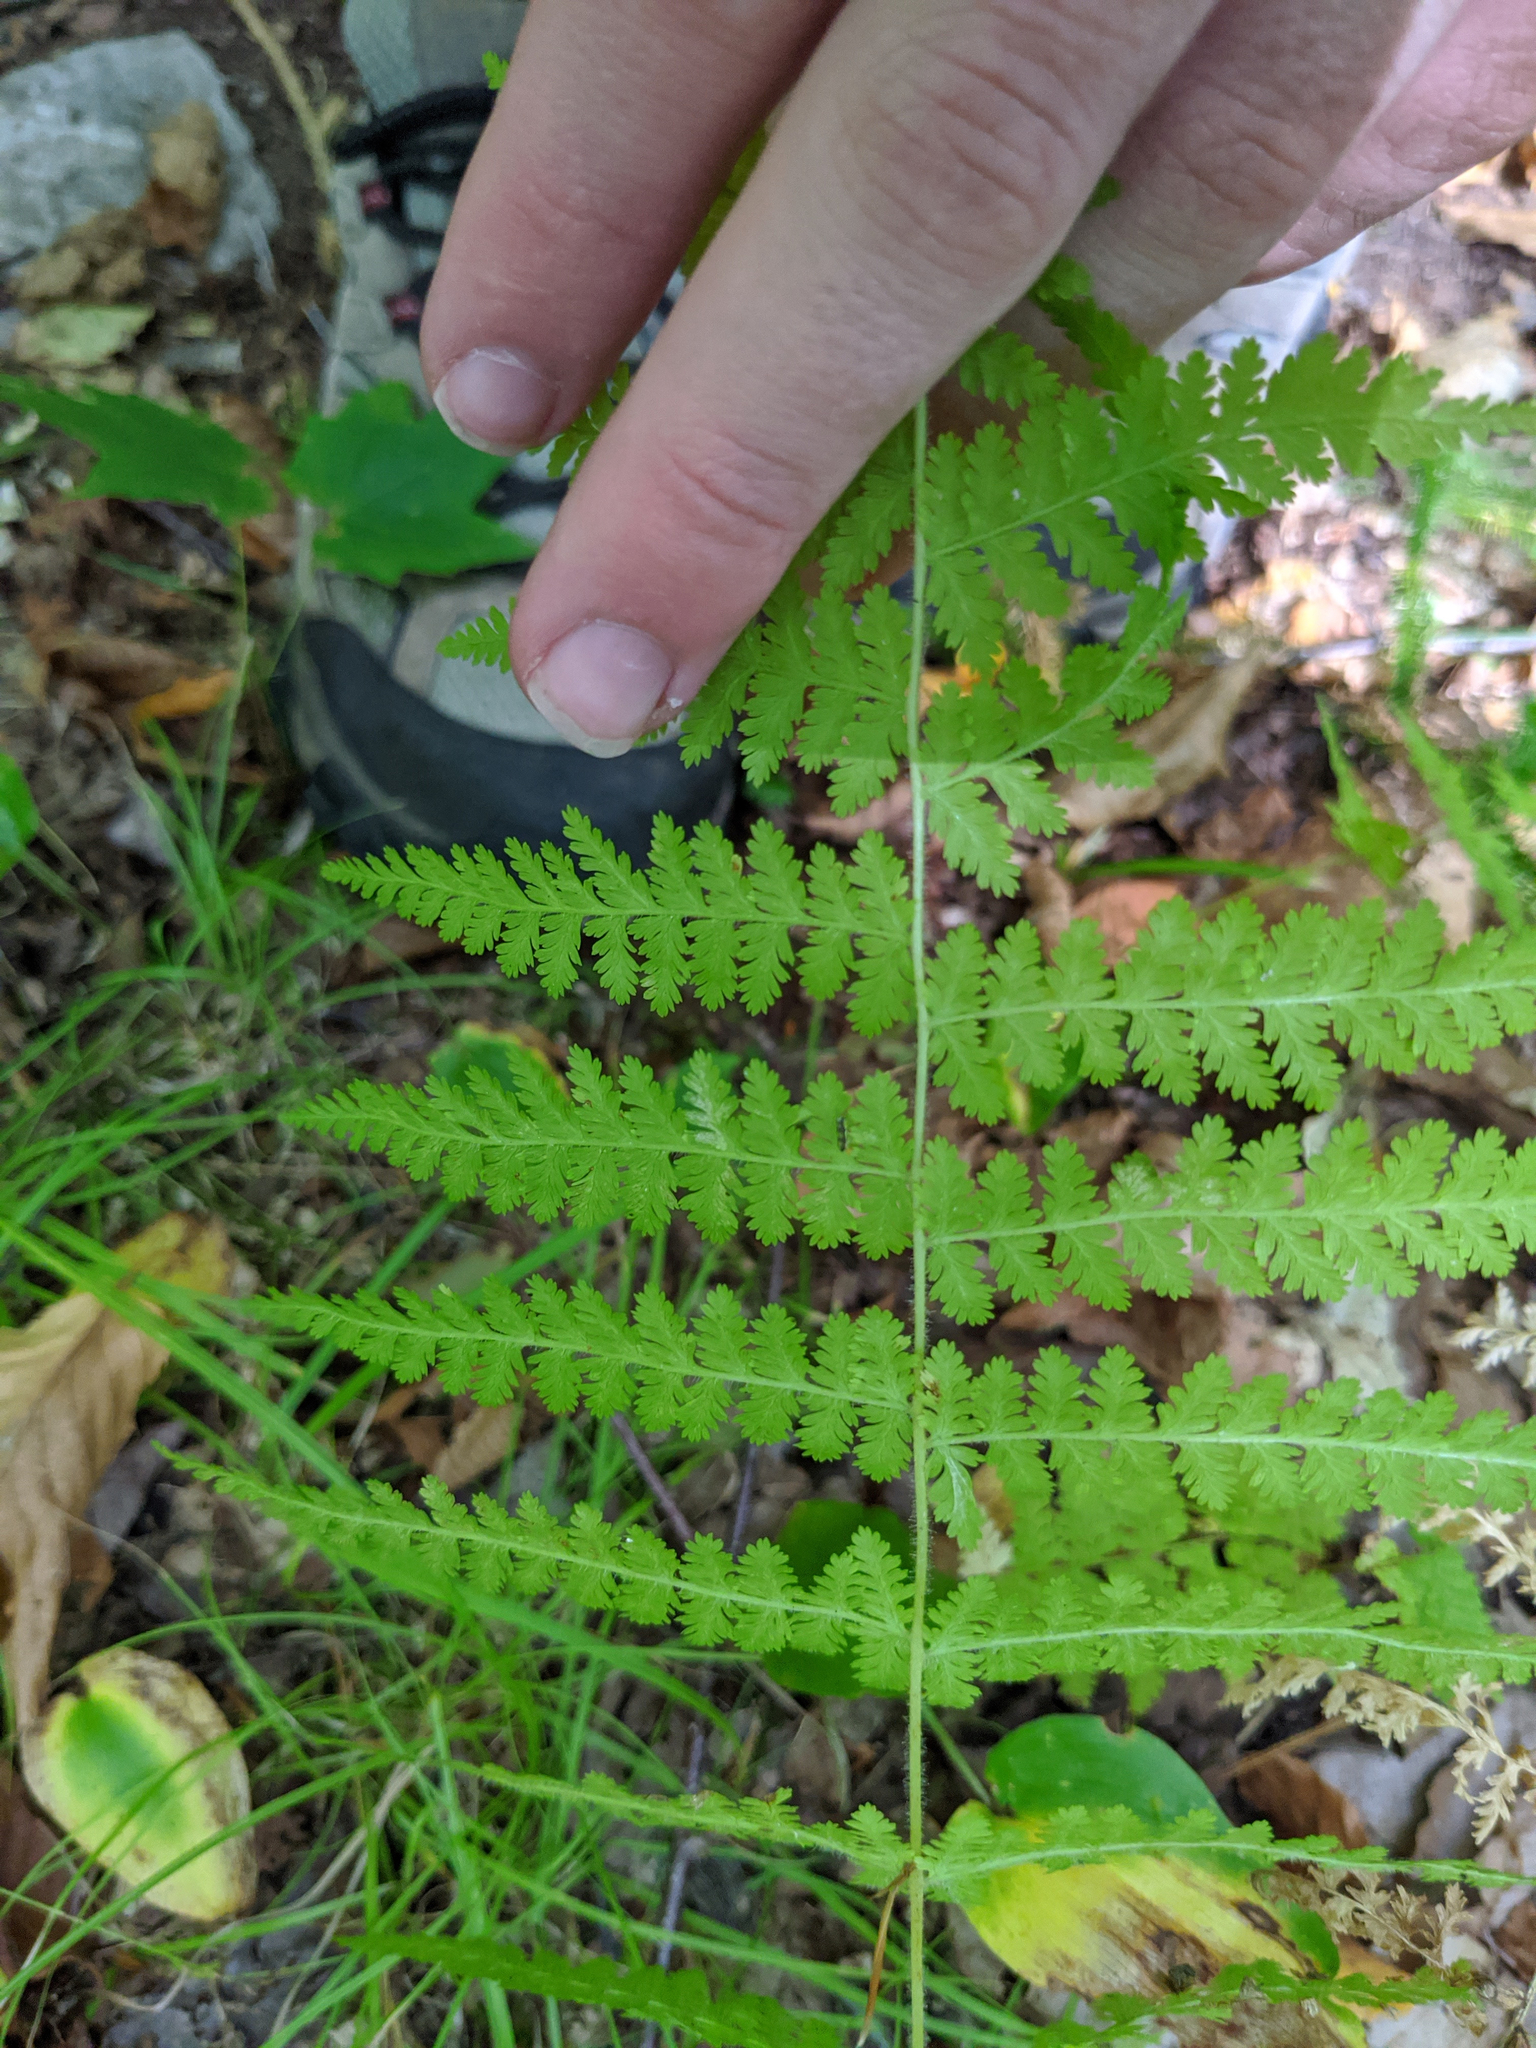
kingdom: Plantae
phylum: Tracheophyta
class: Polypodiopsida
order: Polypodiales
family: Dennstaedtiaceae
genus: Sitobolium
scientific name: Sitobolium punctilobum
